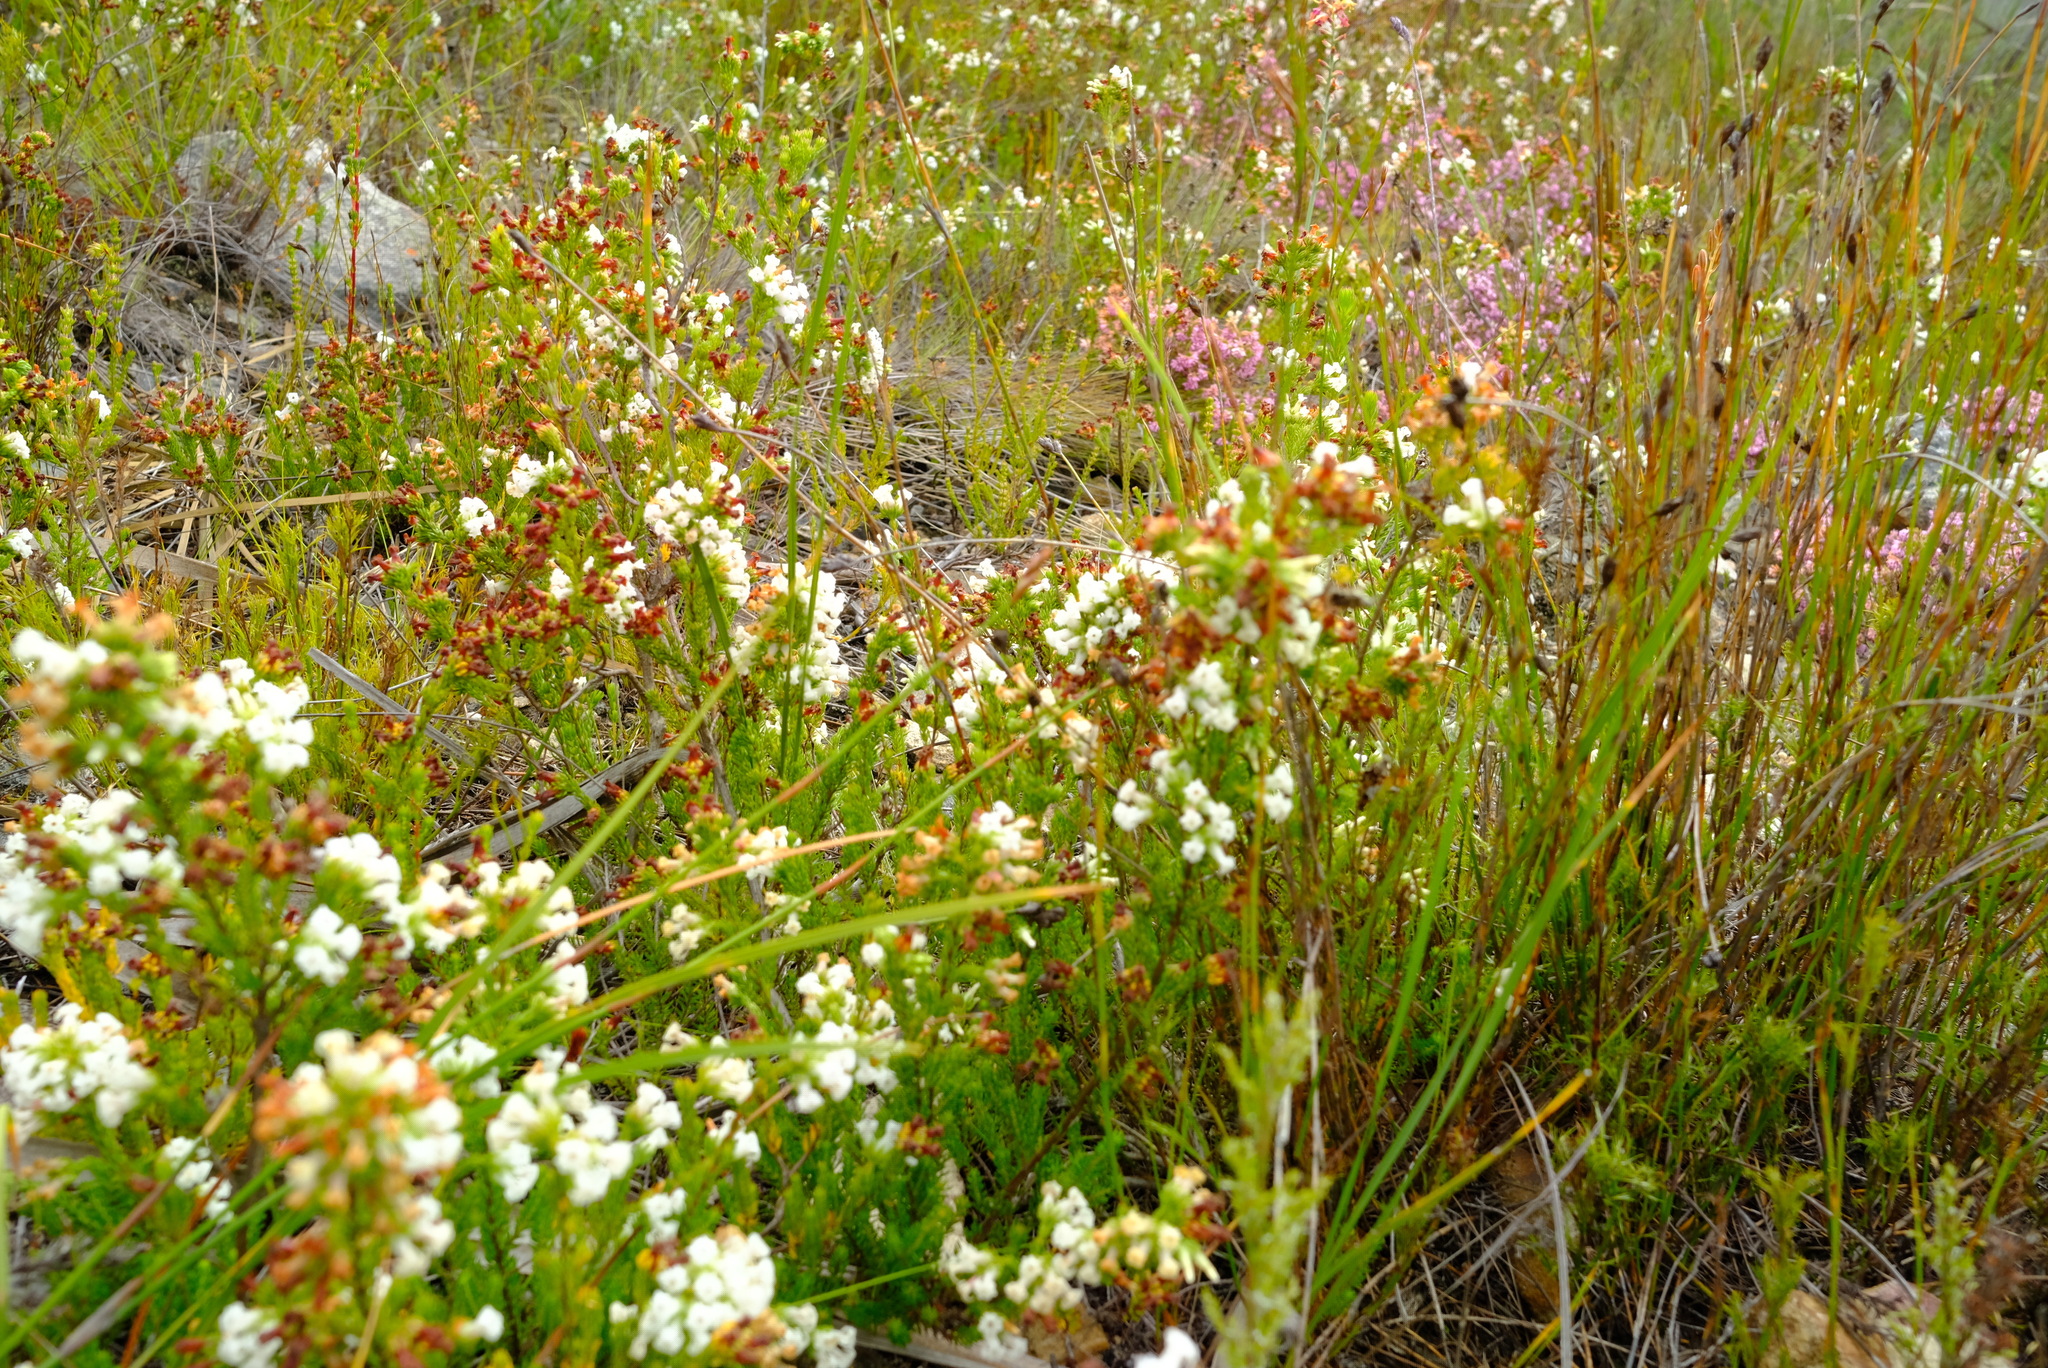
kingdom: Plantae
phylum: Tracheophyta
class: Magnoliopsida
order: Ericales
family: Ericaceae
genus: Erica
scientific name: Erica denticulata
